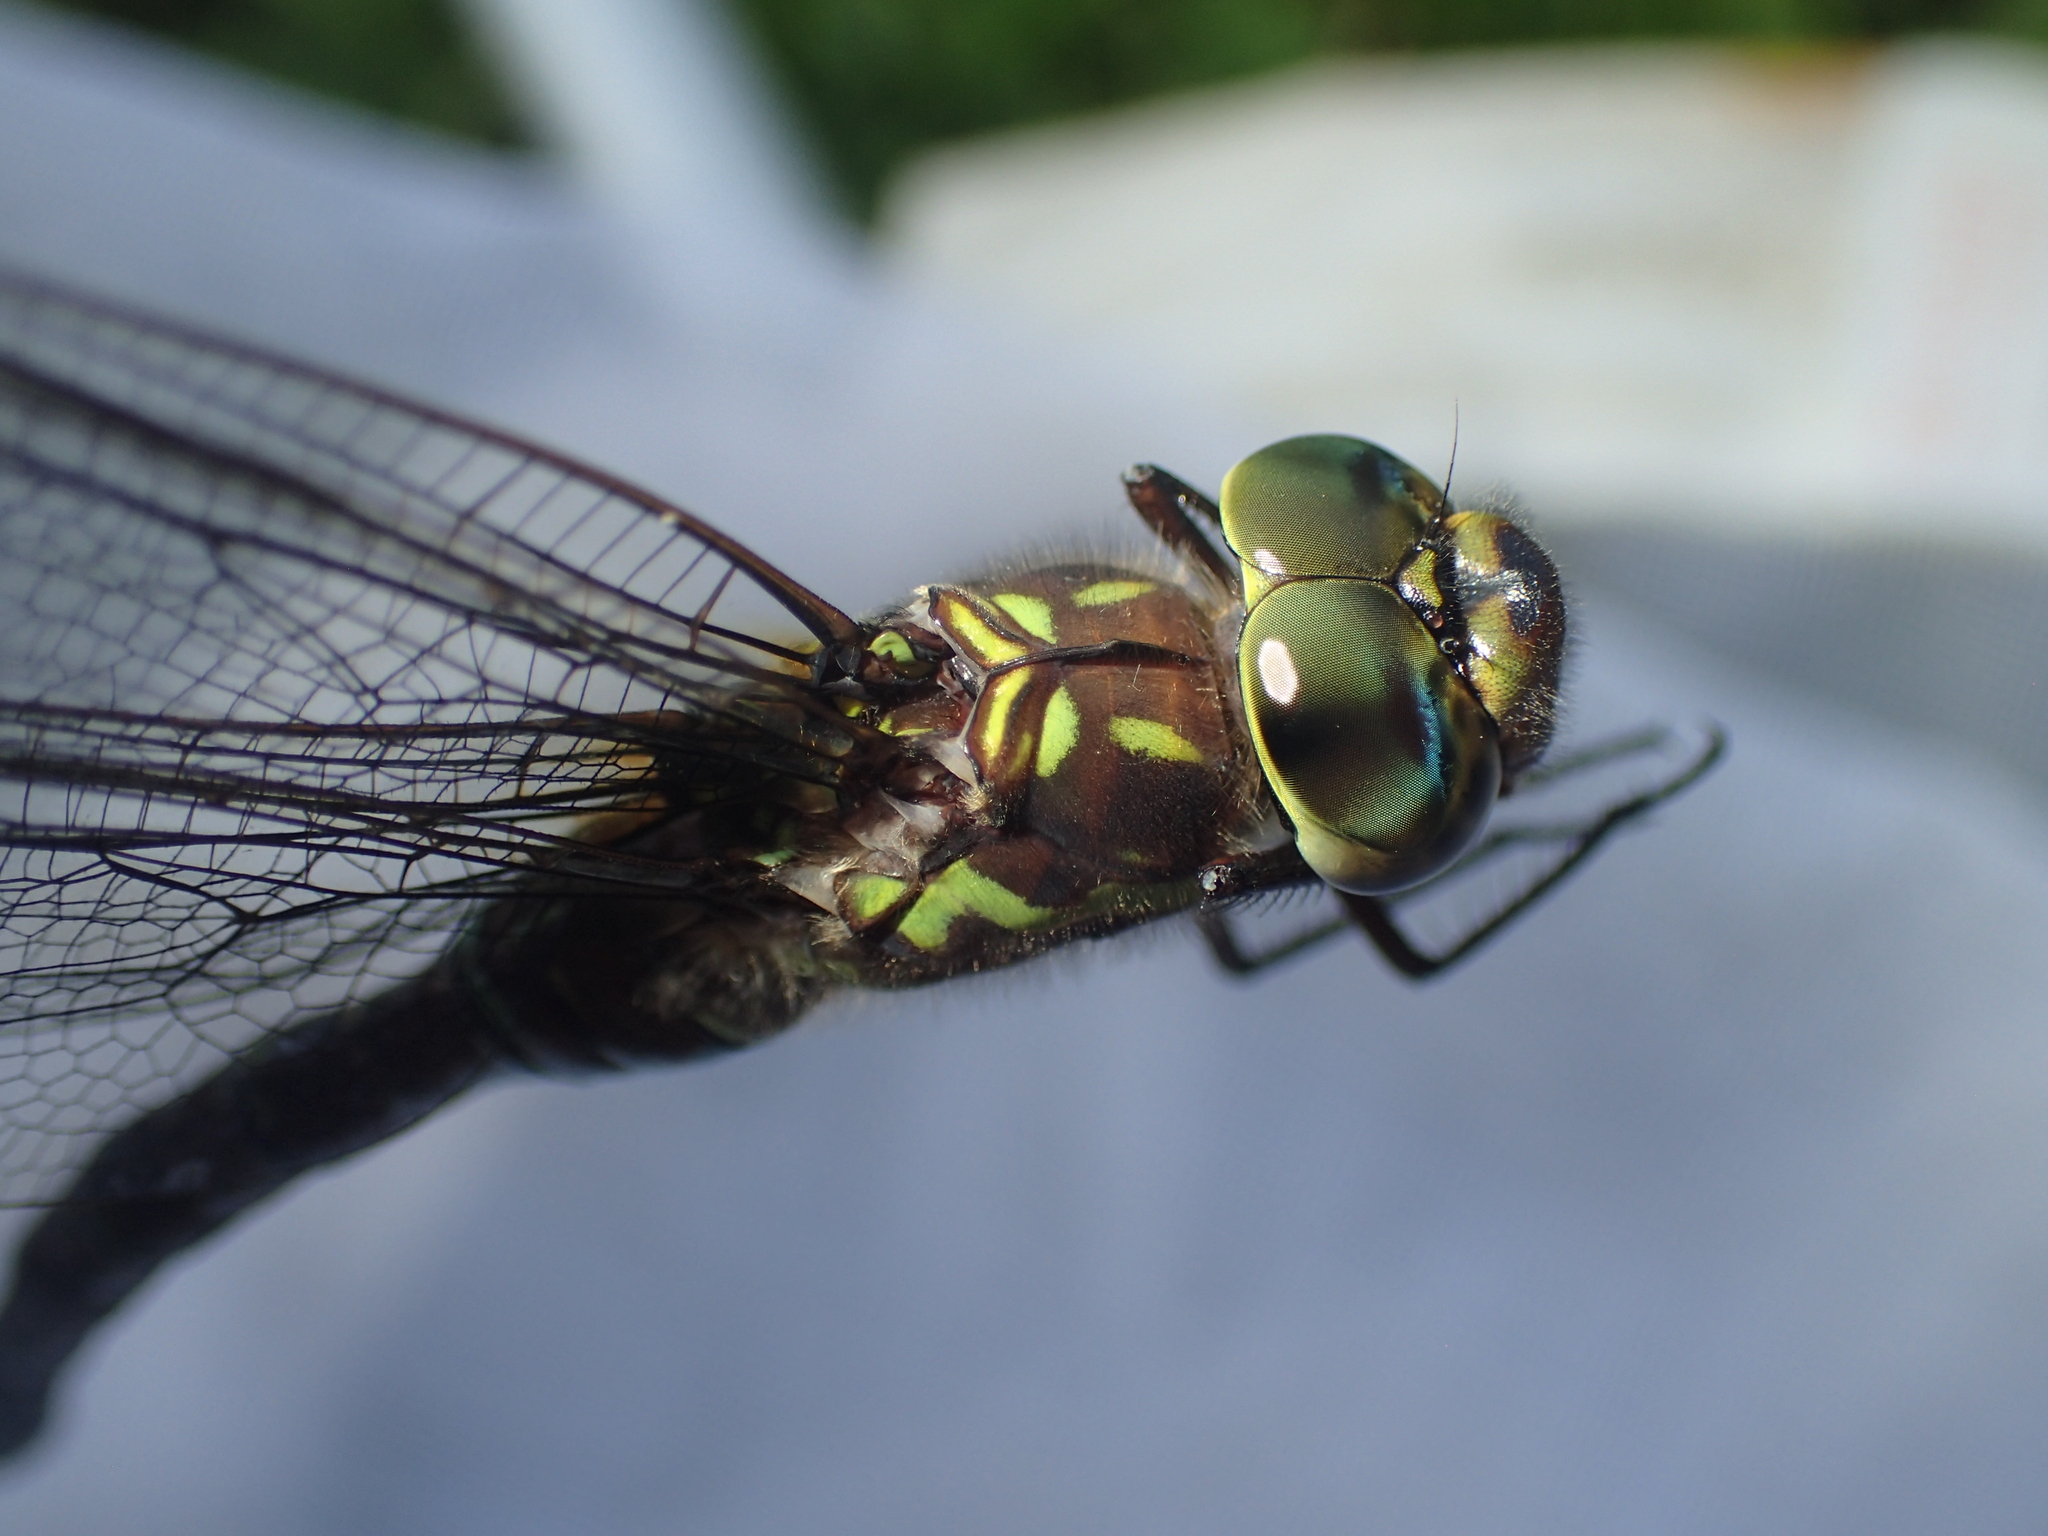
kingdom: Animalia
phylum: Arthropoda
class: Insecta
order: Odonata
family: Aeshnidae
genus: Aeshna
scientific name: Aeshna verticalis
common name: Green-striped darner
